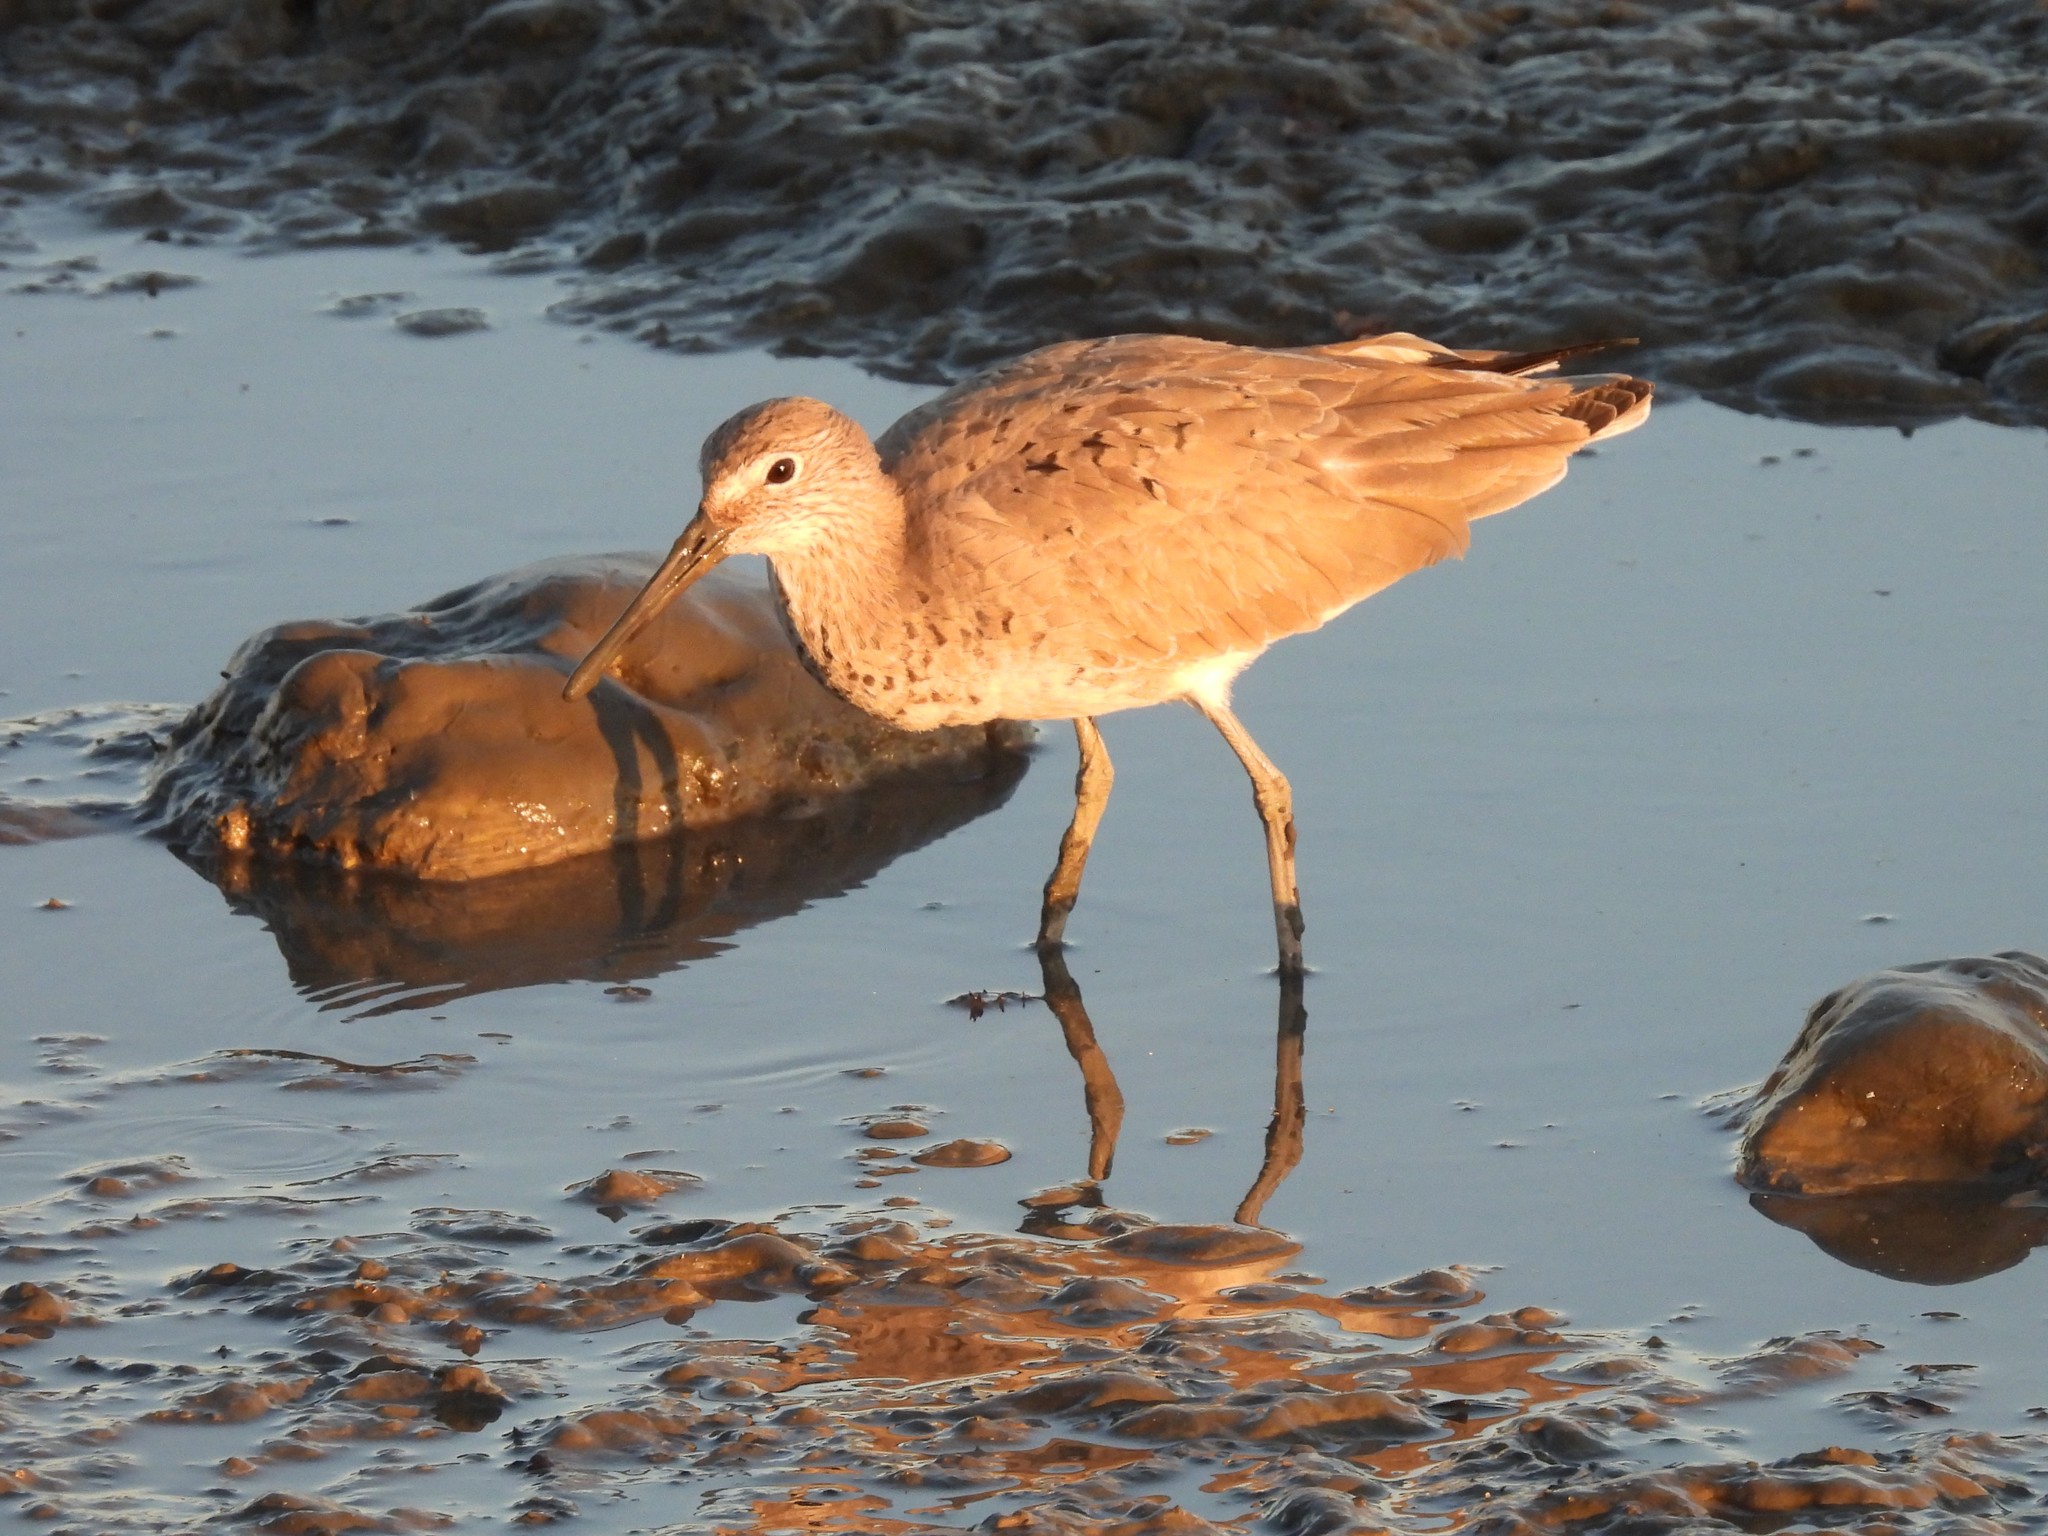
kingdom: Animalia
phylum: Chordata
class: Aves
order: Charadriiformes
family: Scolopacidae
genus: Tringa
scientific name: Tringa semipalmata
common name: Willet
